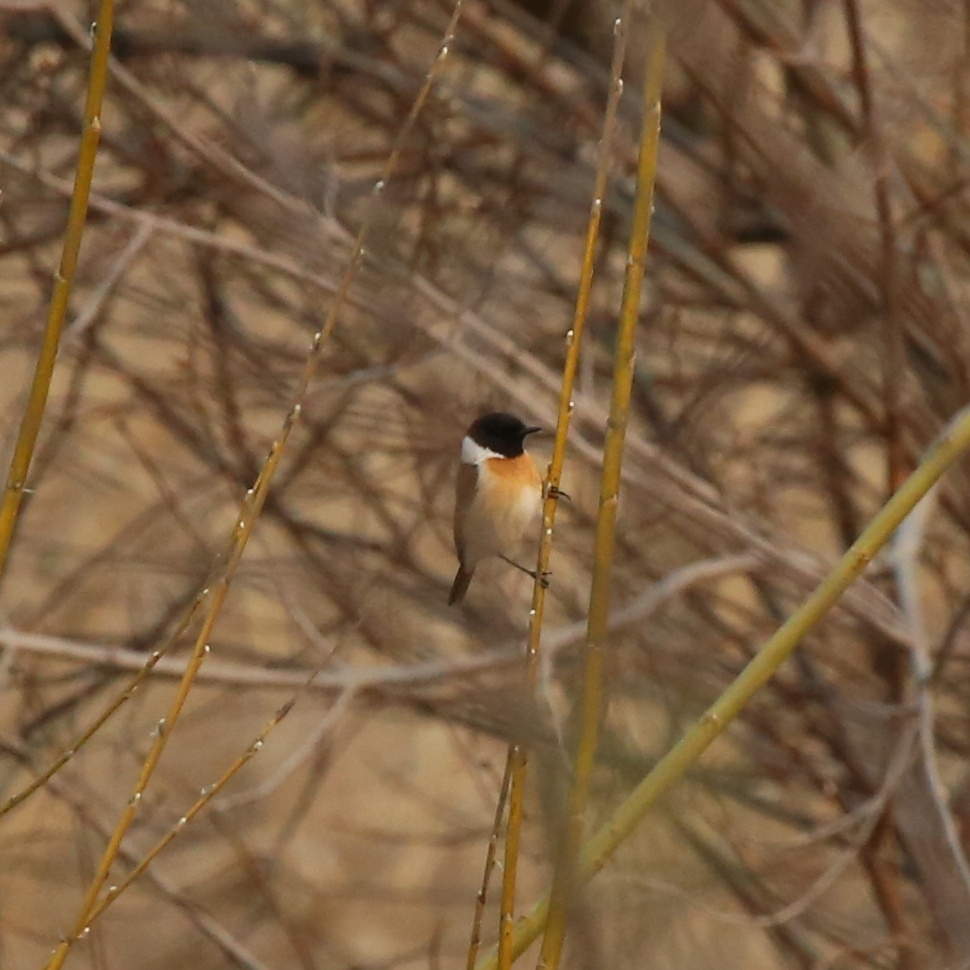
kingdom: Animalia
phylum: Chordata
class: Aves
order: Passeriformes
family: Muscicapidae
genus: Saxicola
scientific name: Saxicola maurus
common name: Siberian stonechat
